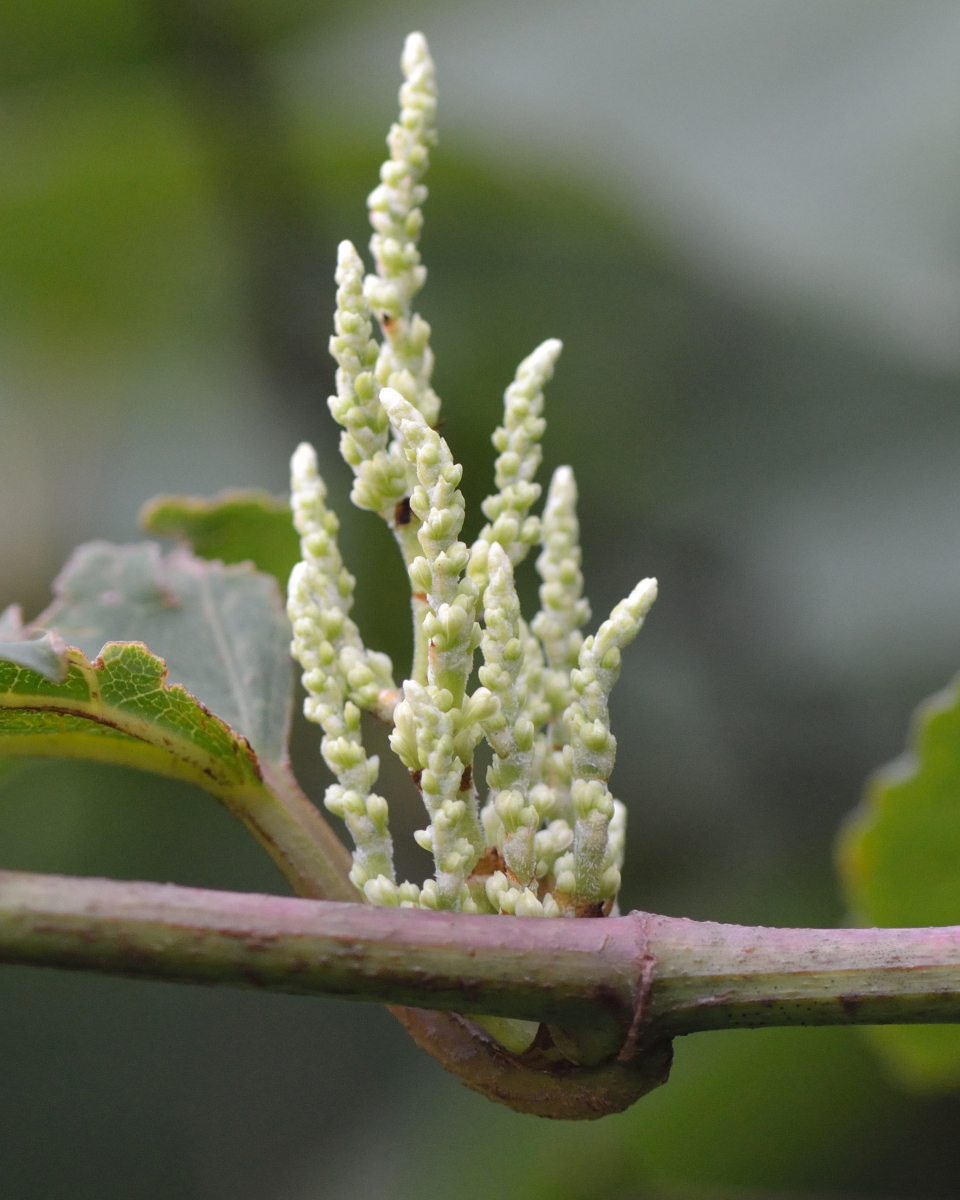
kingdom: Plantae
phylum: Tracheophyta
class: Magnoliopsida
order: Caryophyllales
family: Polygonaceae
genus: Reynoutria
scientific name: Reynoutria bohemica
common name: Bohemian knotweed
